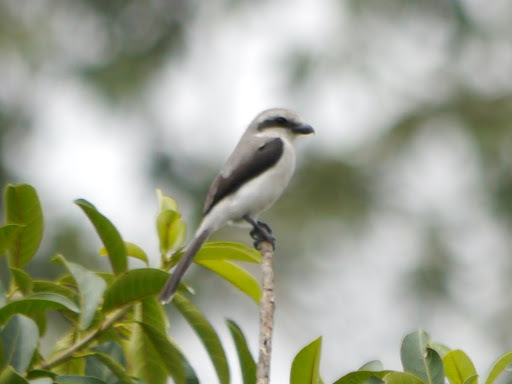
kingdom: Animalia
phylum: Chordata
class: Aves
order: Passeriformes
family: Laniidae
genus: Lanius
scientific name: Lanius mackinnoni
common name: Mackinnon's shrike
